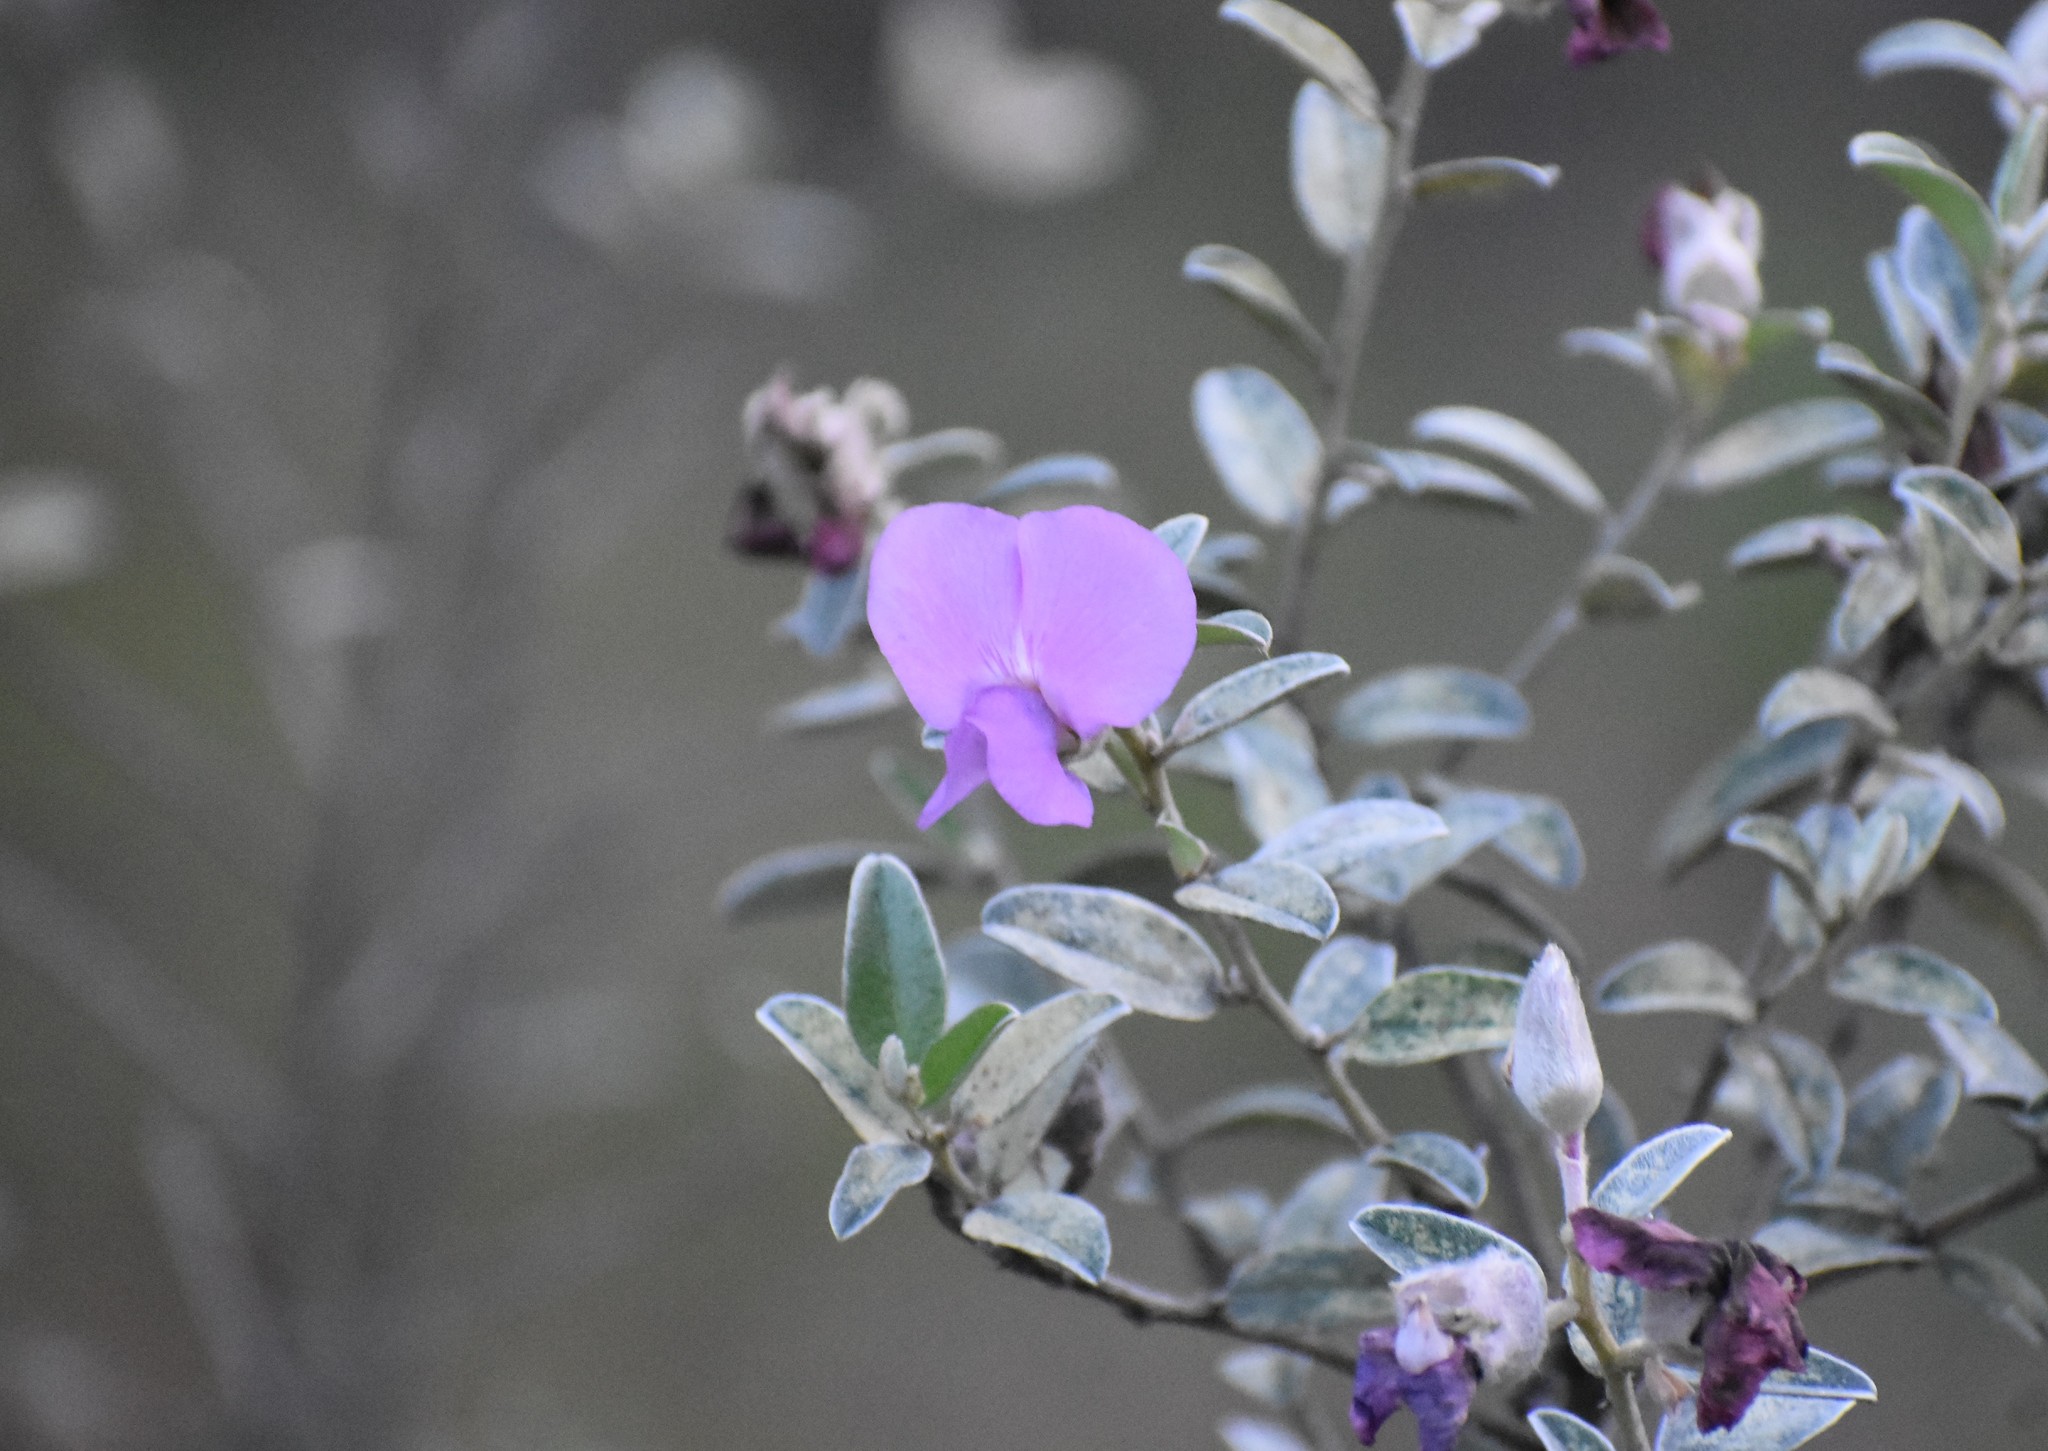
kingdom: Plantae
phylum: Tracheophyta
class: Magnoliopsida
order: Fabales
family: Fabaceae
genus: Podalyria
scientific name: Podalyria myrtillifolia
